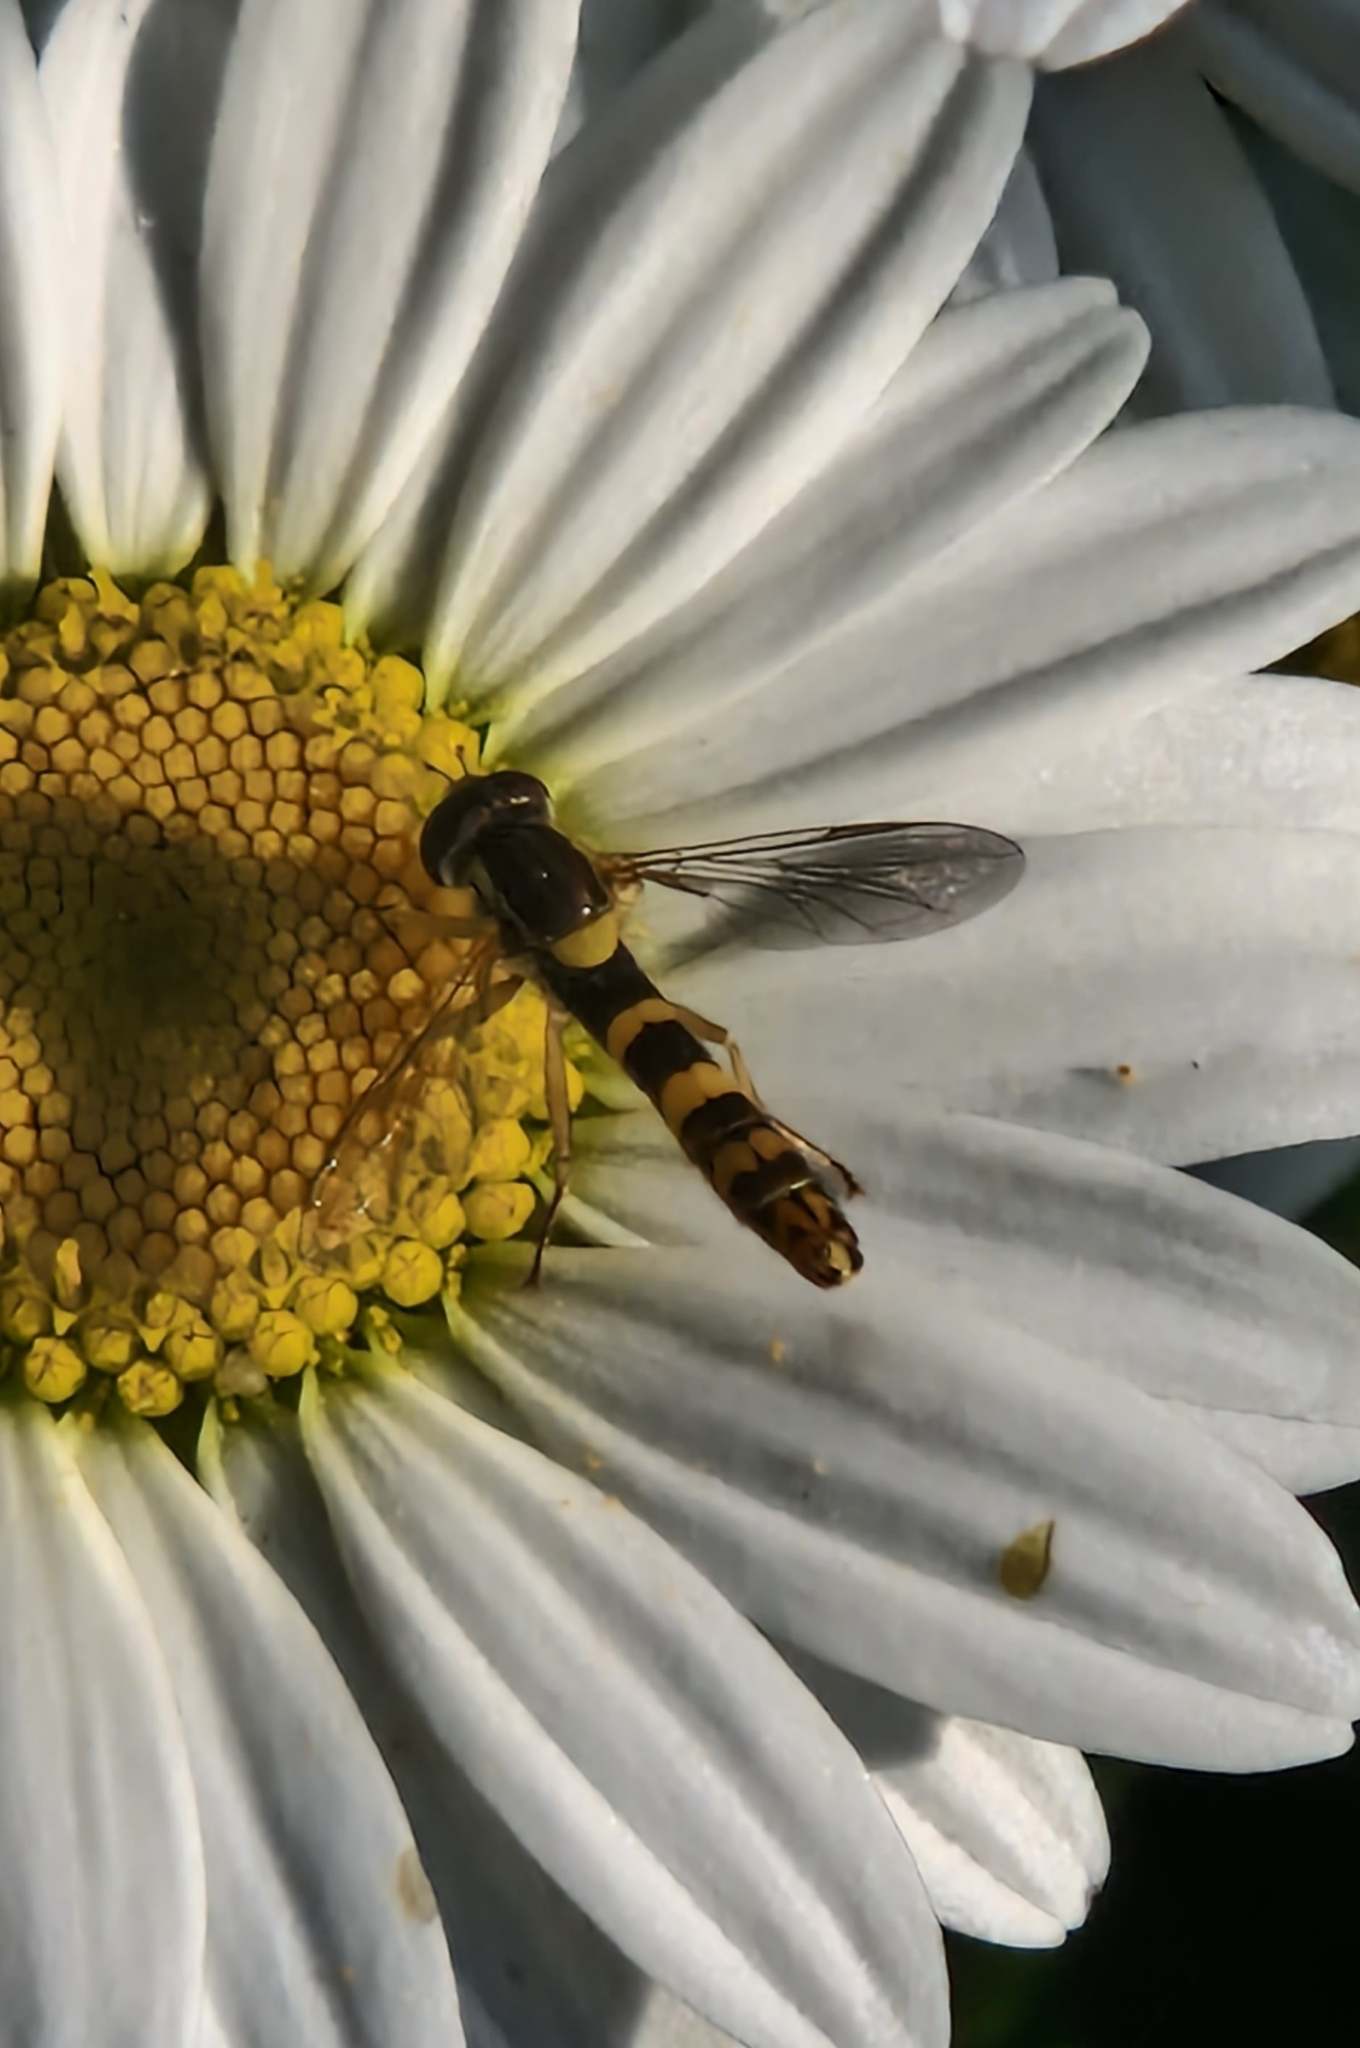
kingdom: Animalia
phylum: Arthropoda
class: Insecta
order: Diptera
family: Syrphidae
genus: Sphaerophoria
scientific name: Sphaerophoria scripta
